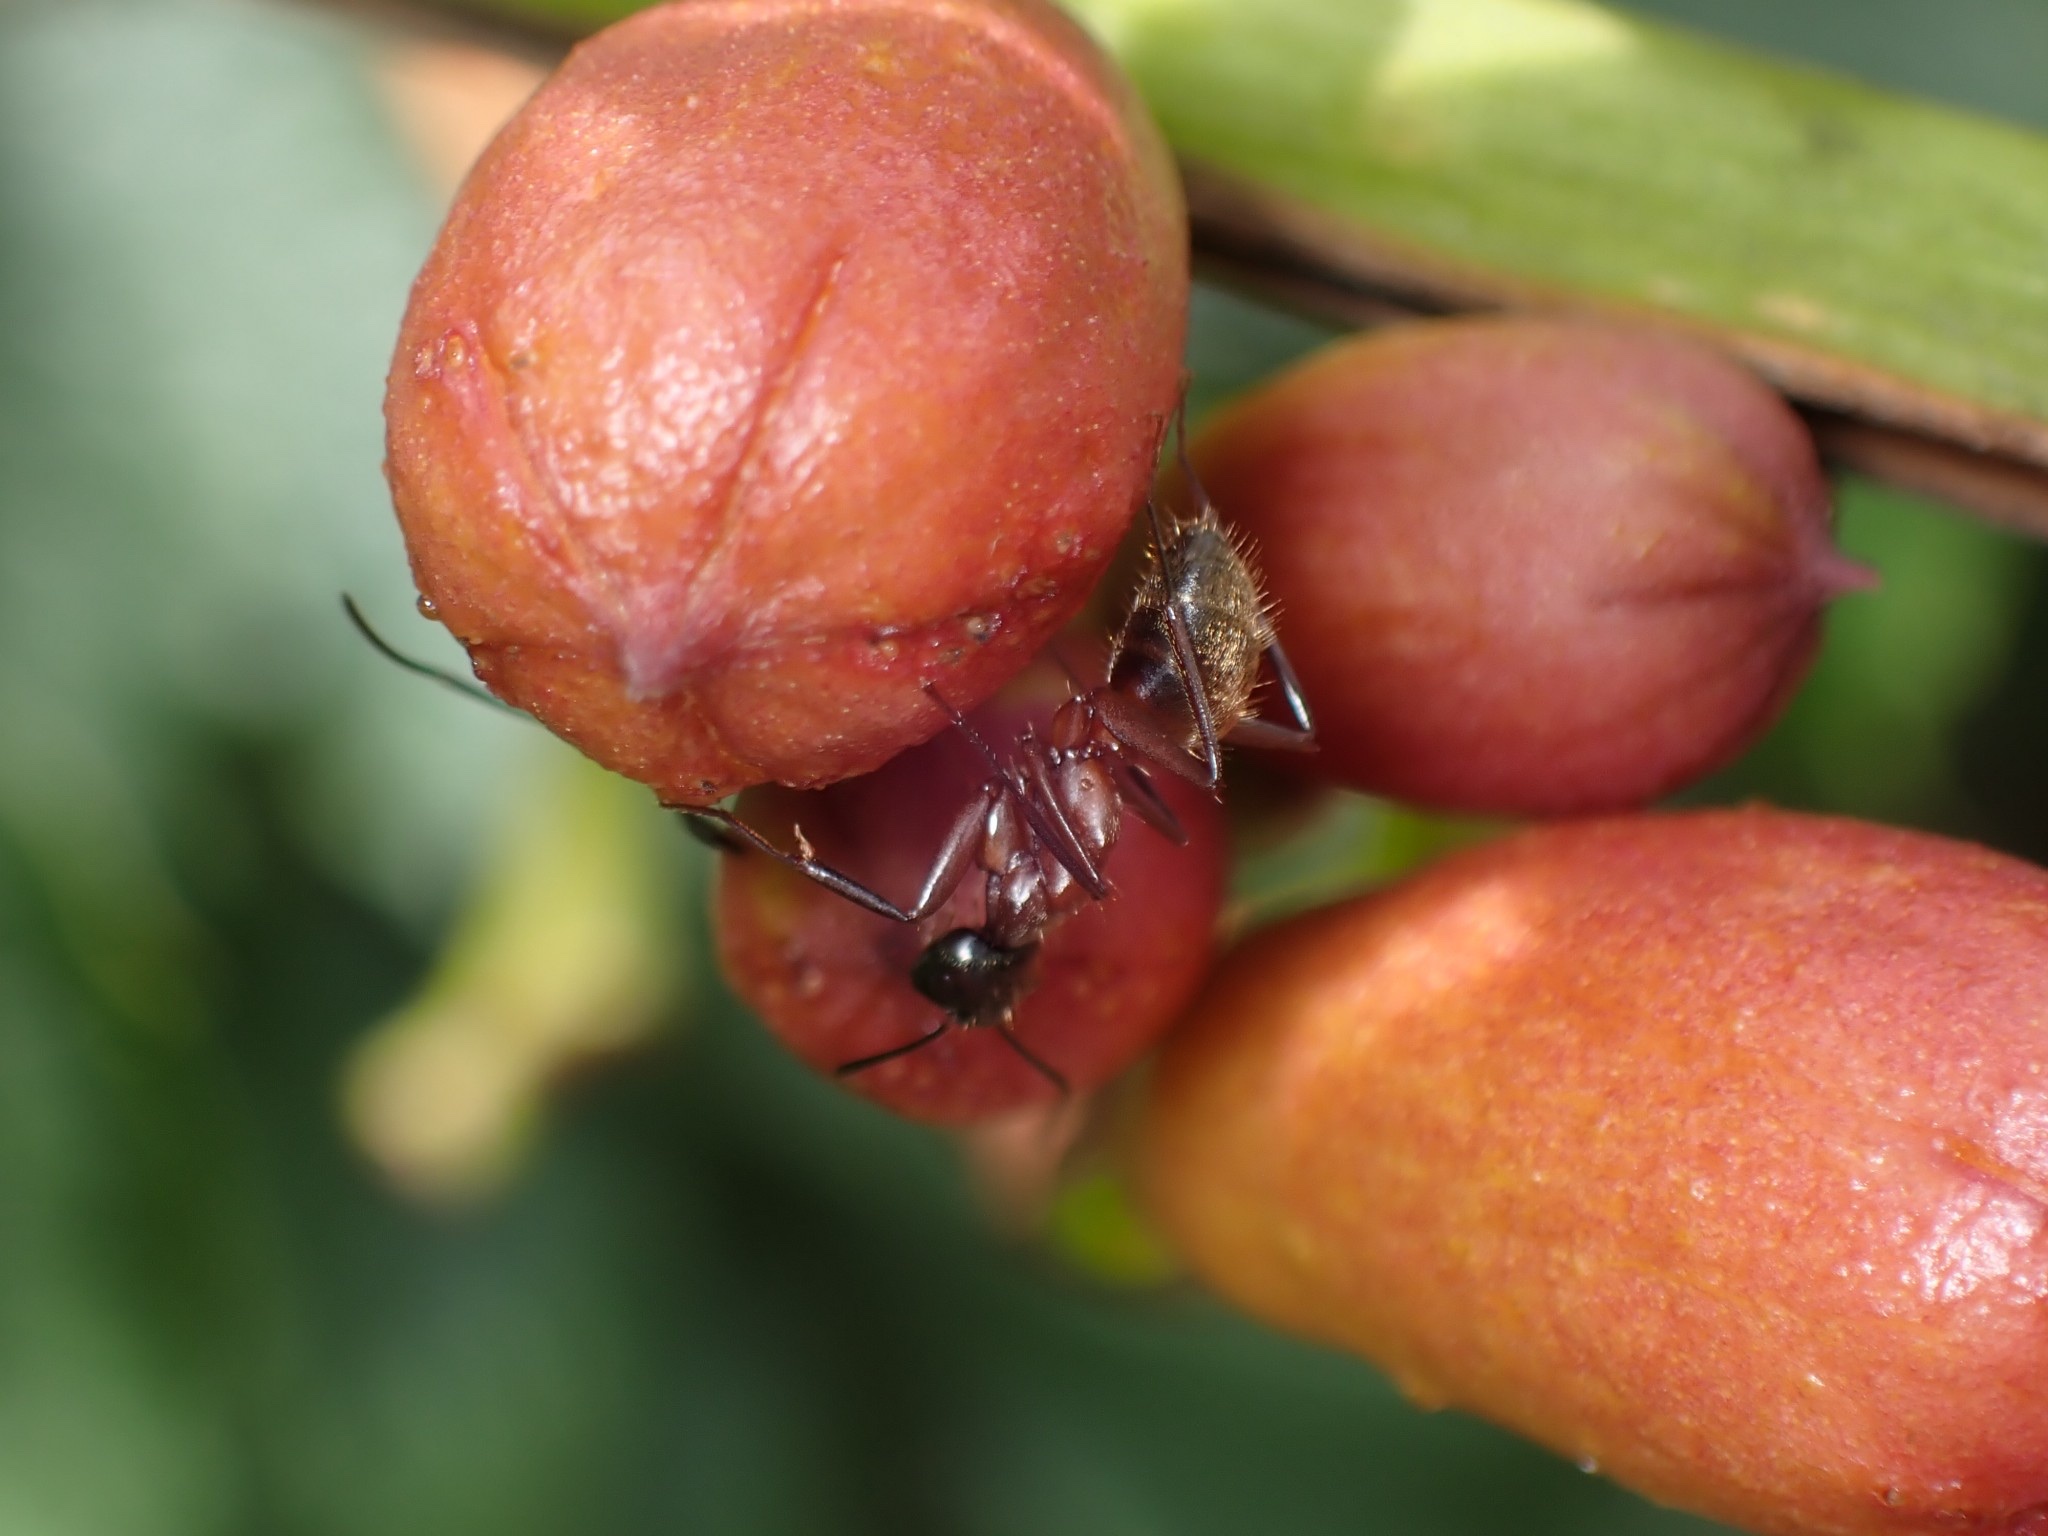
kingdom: Animalia
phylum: Arthropoda
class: Insecta
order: Hymenoptera
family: Formicidae
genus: Camponotus
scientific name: Camponotus chromaiodes
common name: Red carpenter ant
